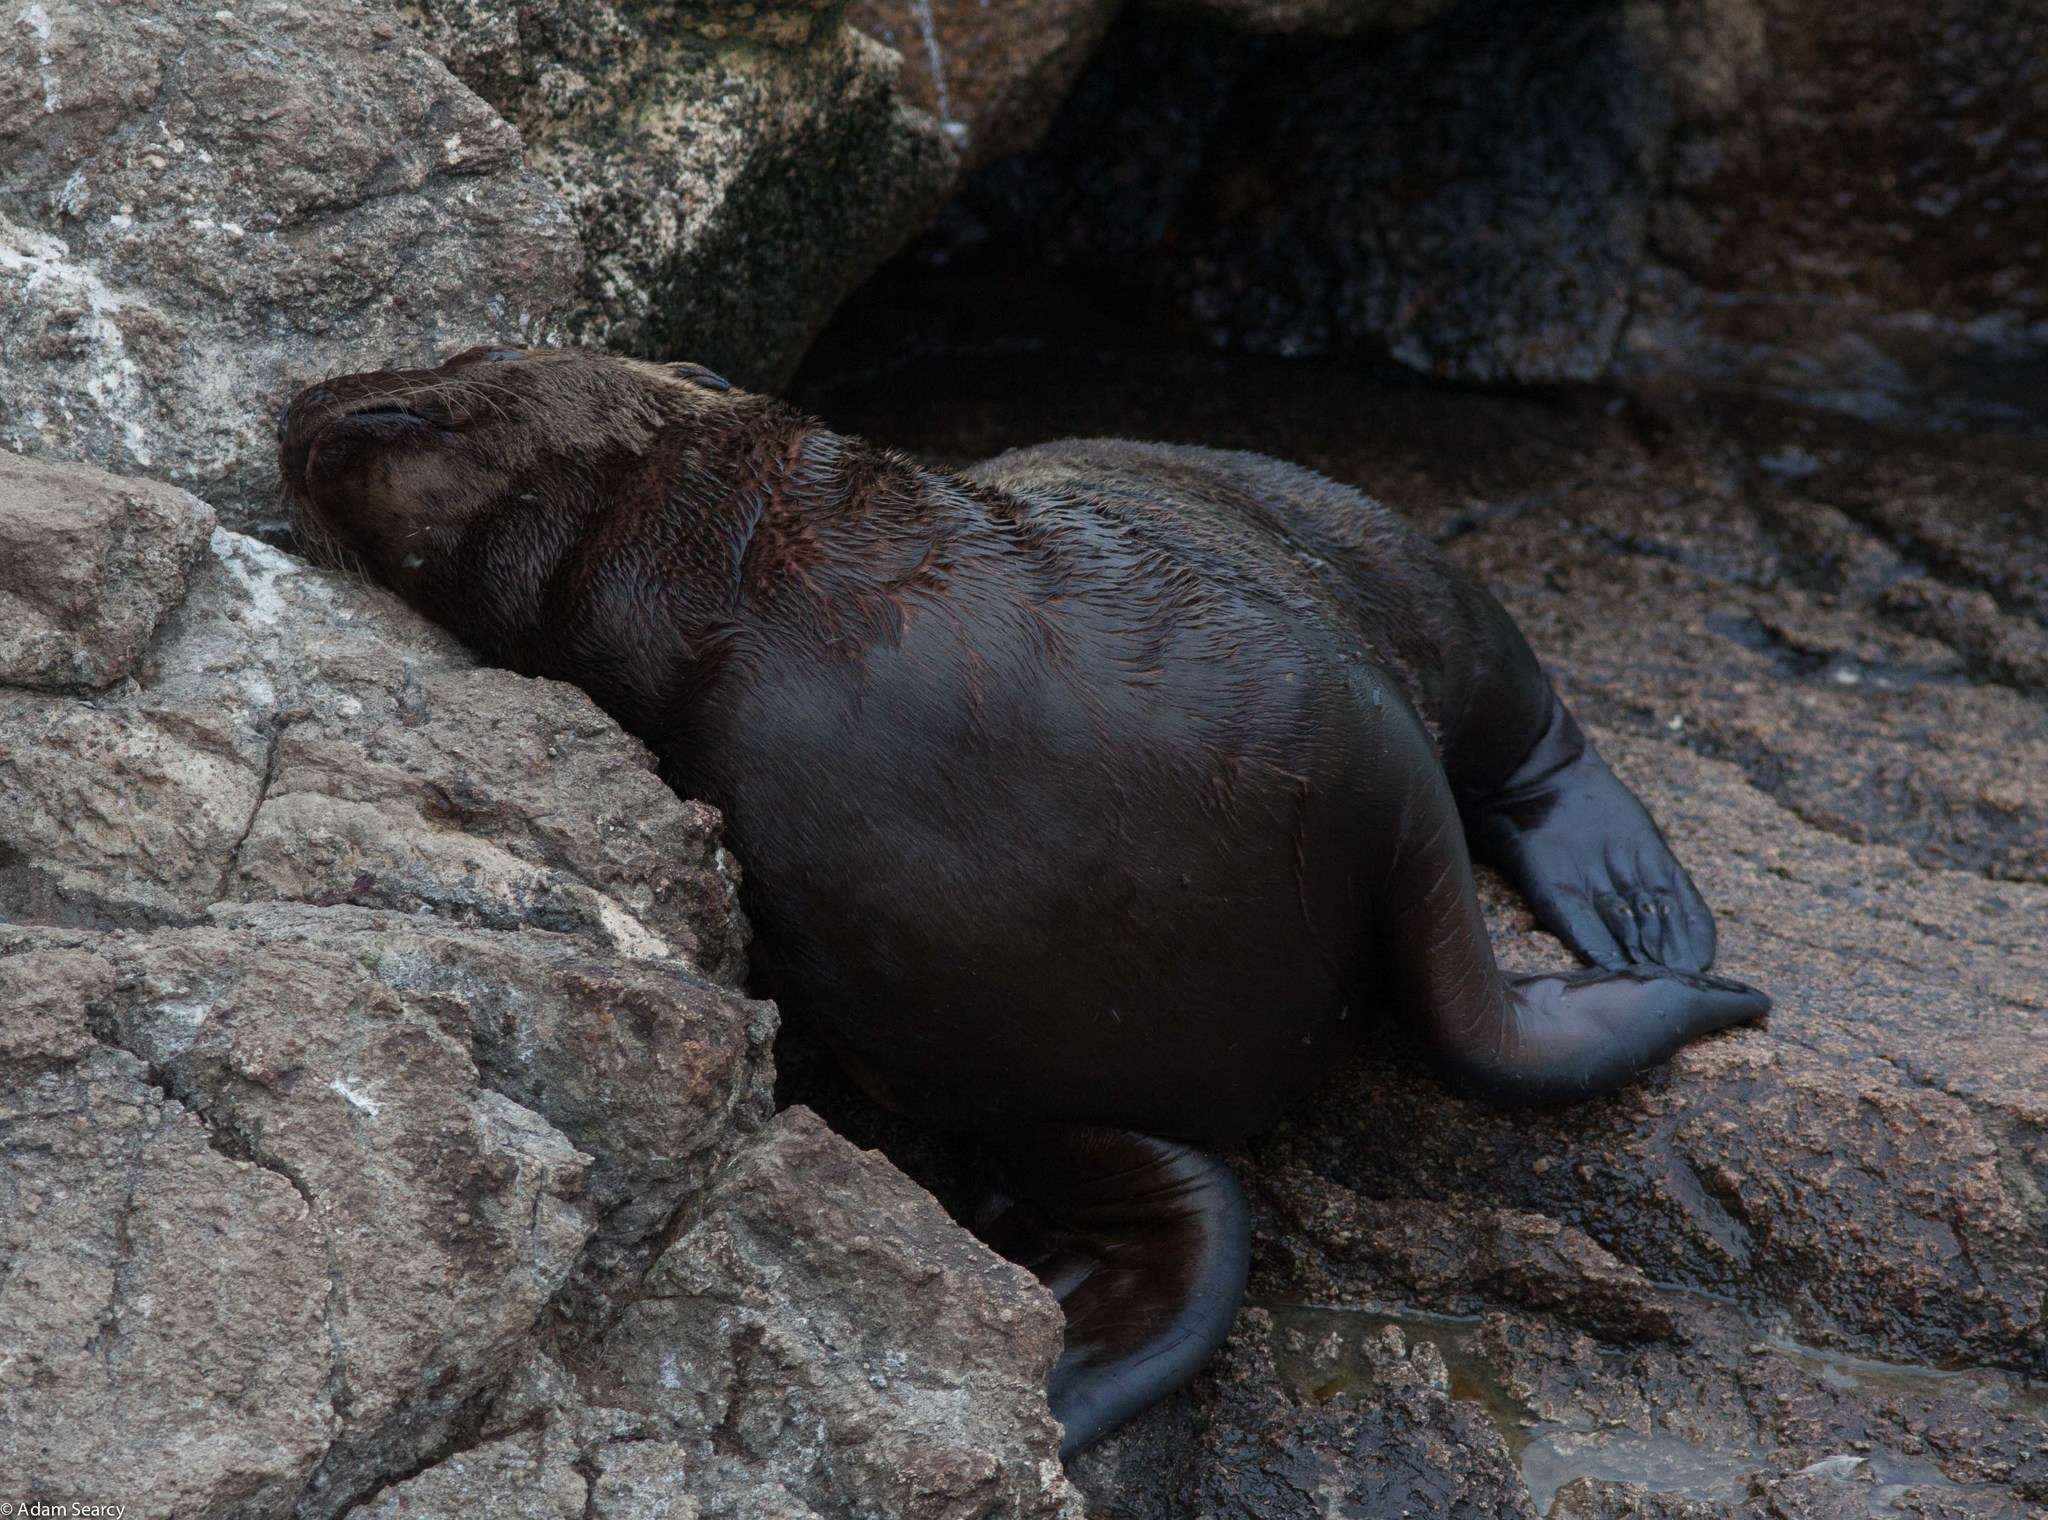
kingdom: Animalia
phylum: Chordata
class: Mammalia
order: Carnivora
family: Otariidae
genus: Eumetopias
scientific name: Eumetopias jubatus
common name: Steller sea lion
